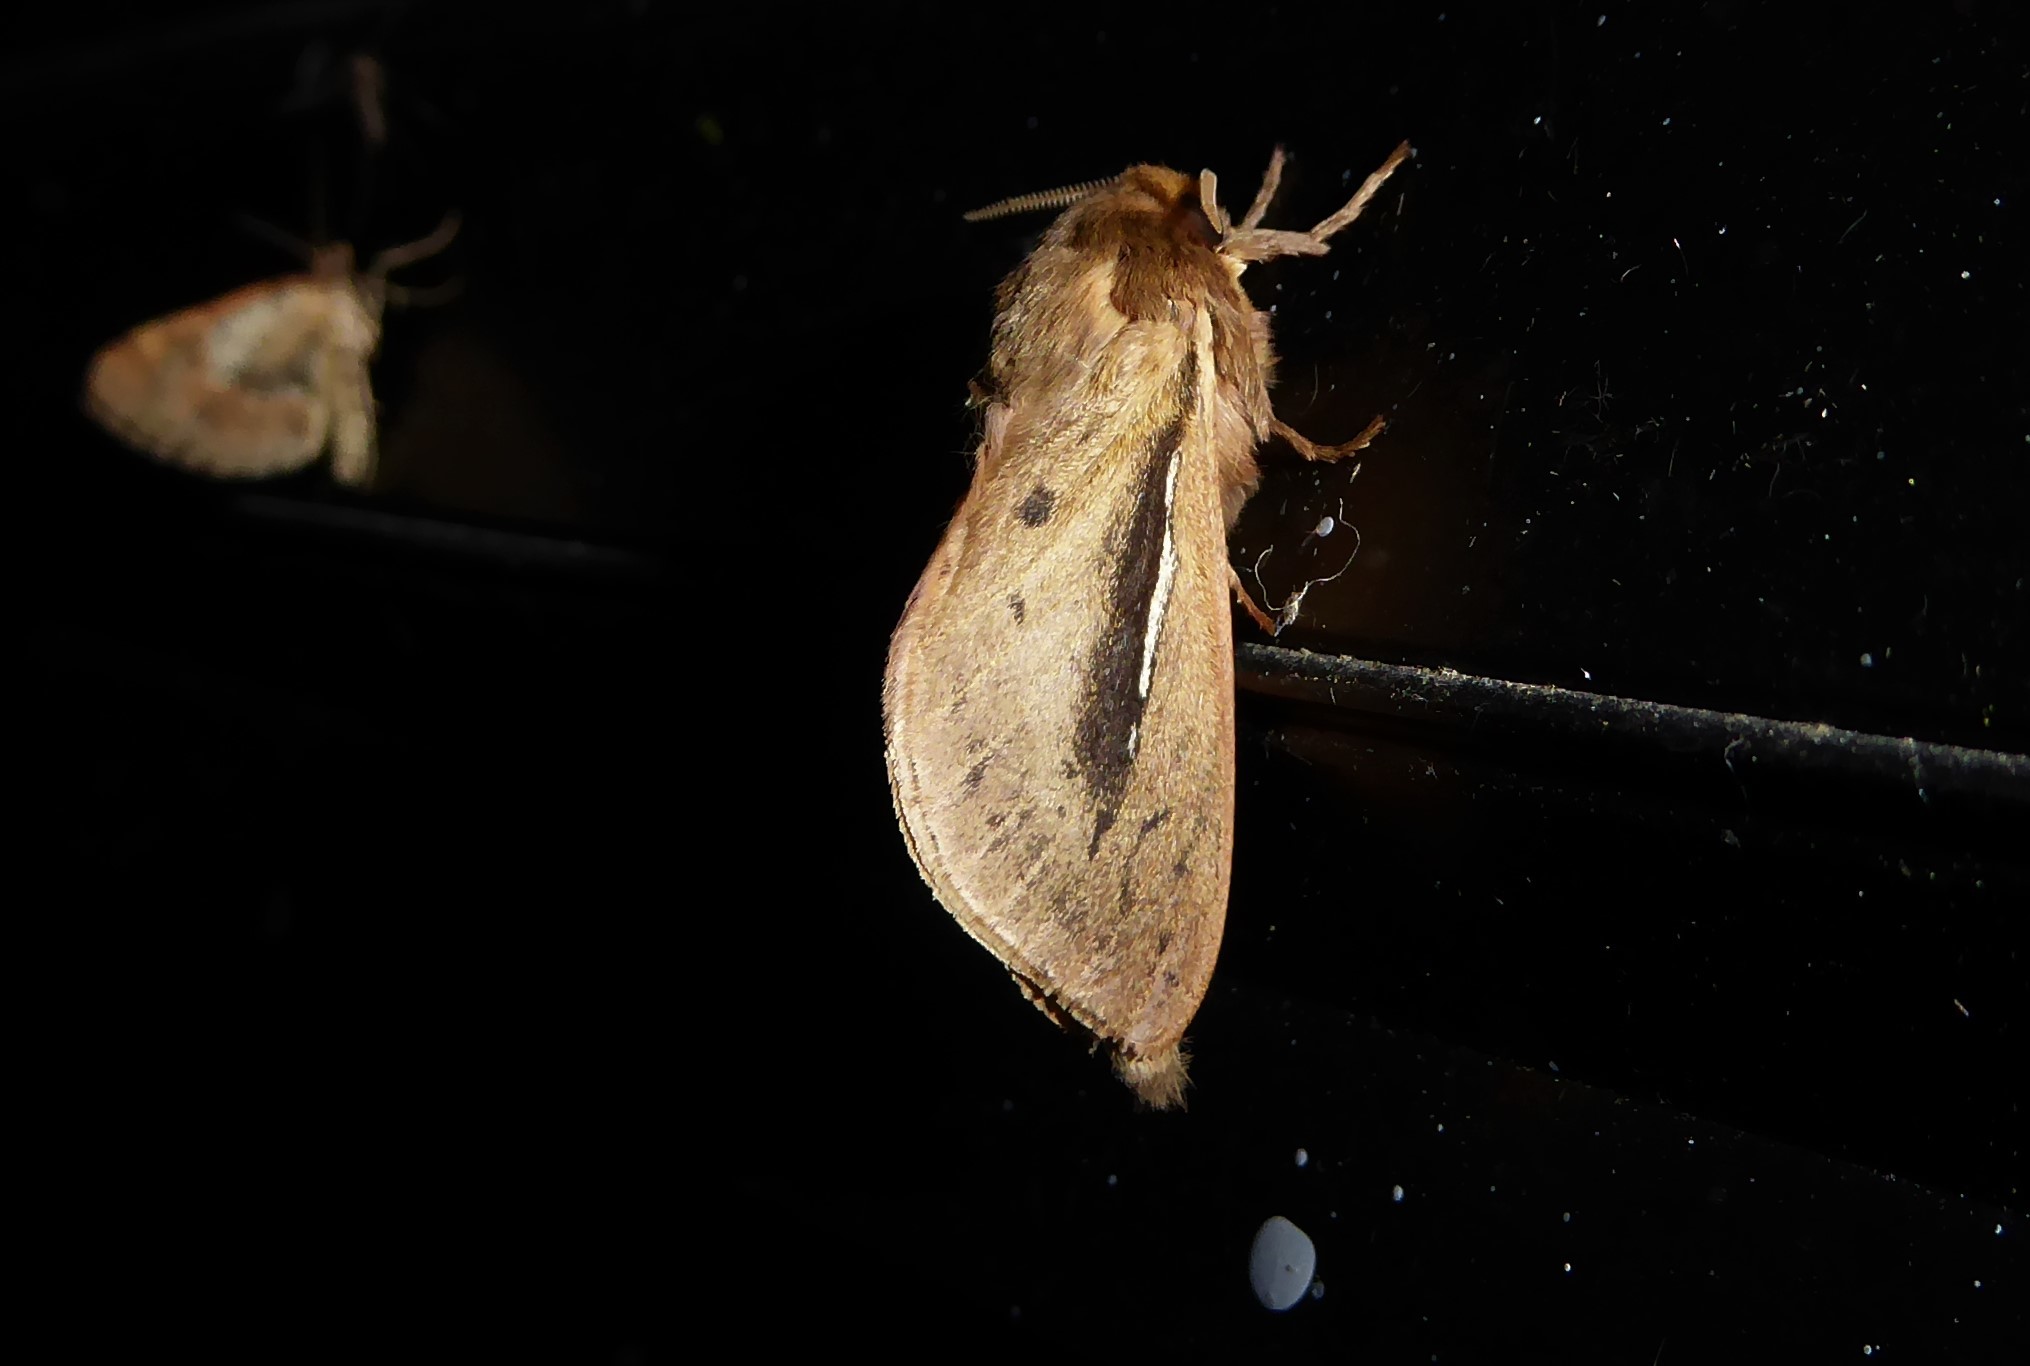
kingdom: Animalia
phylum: Arthropoda
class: Insecta
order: Lepidoptera
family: Hepialidae
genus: Wiseana
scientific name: Wiseana umbraculatus
